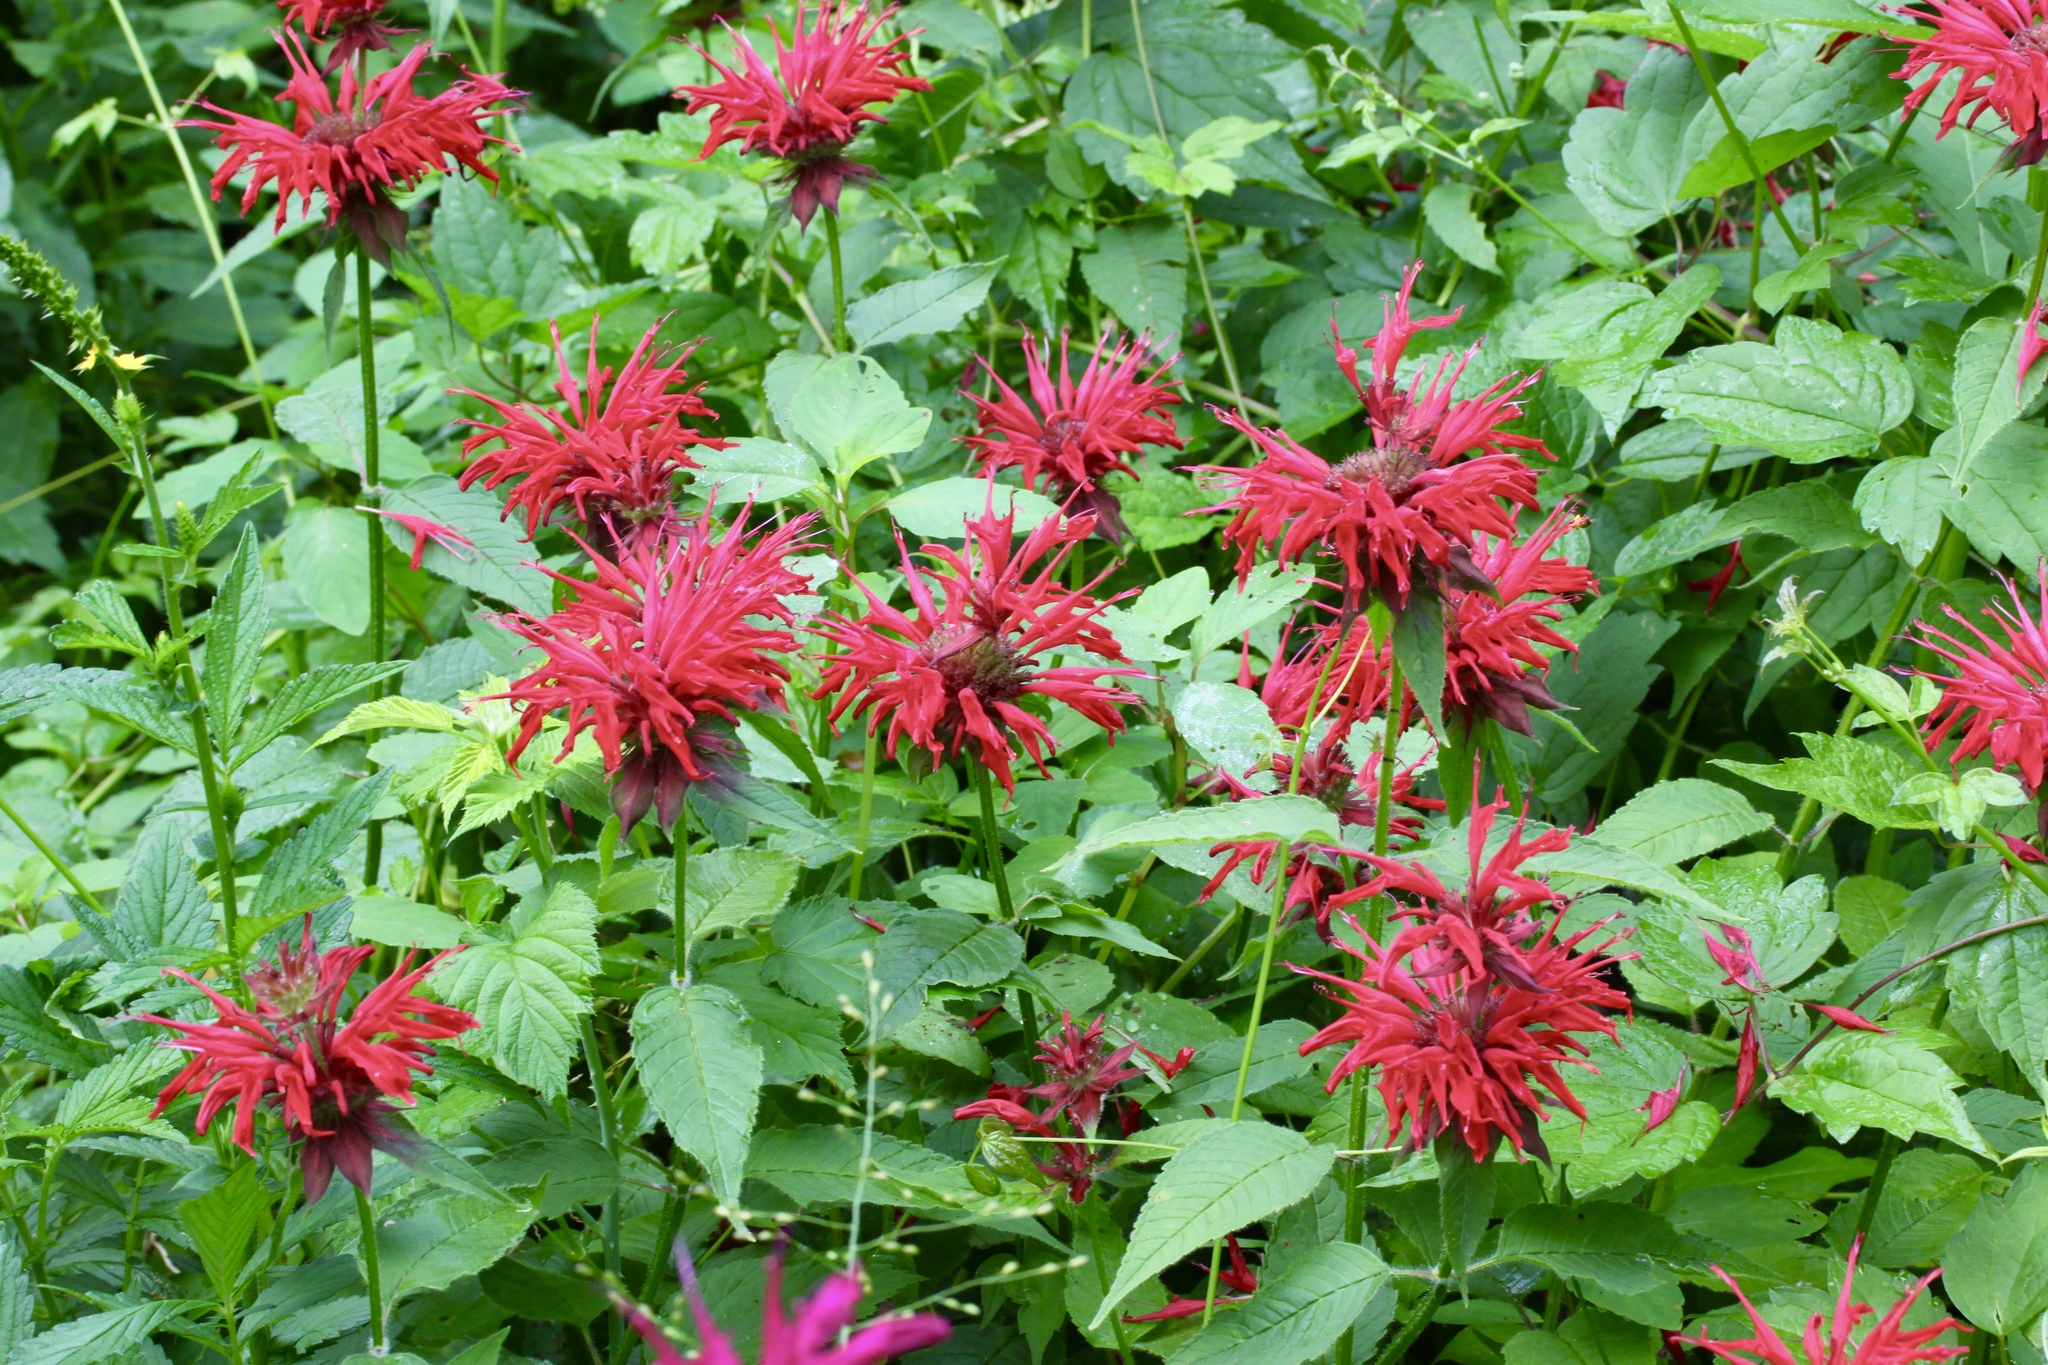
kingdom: Plantae
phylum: Tracheophyta
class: Magnoliopsida
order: Lamiales
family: Lamiaceae
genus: Monarda
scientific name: Monarda didyma
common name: Beebalm
